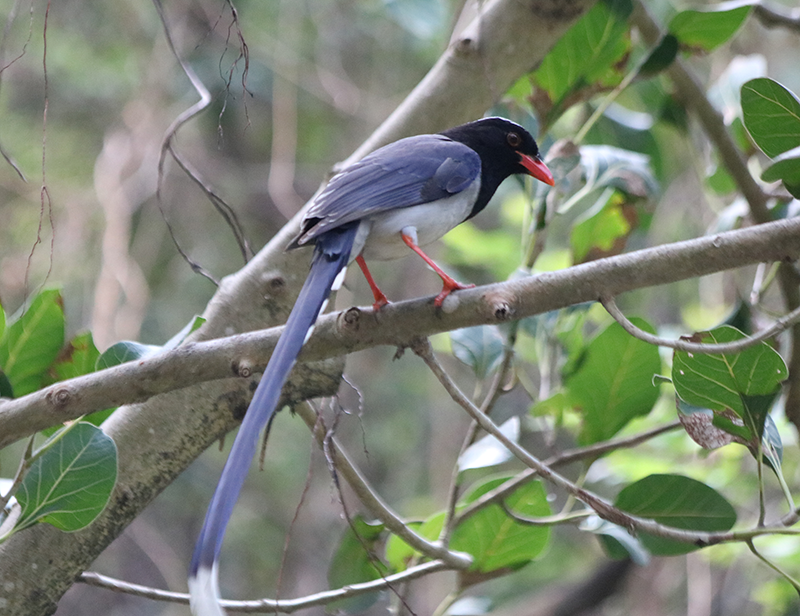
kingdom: Animalia
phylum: Chordata
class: Aves
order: Passeriformes
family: Corvidae
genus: Urocissa
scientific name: Urocissa erythroryncha
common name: Red-billed blue magpie
